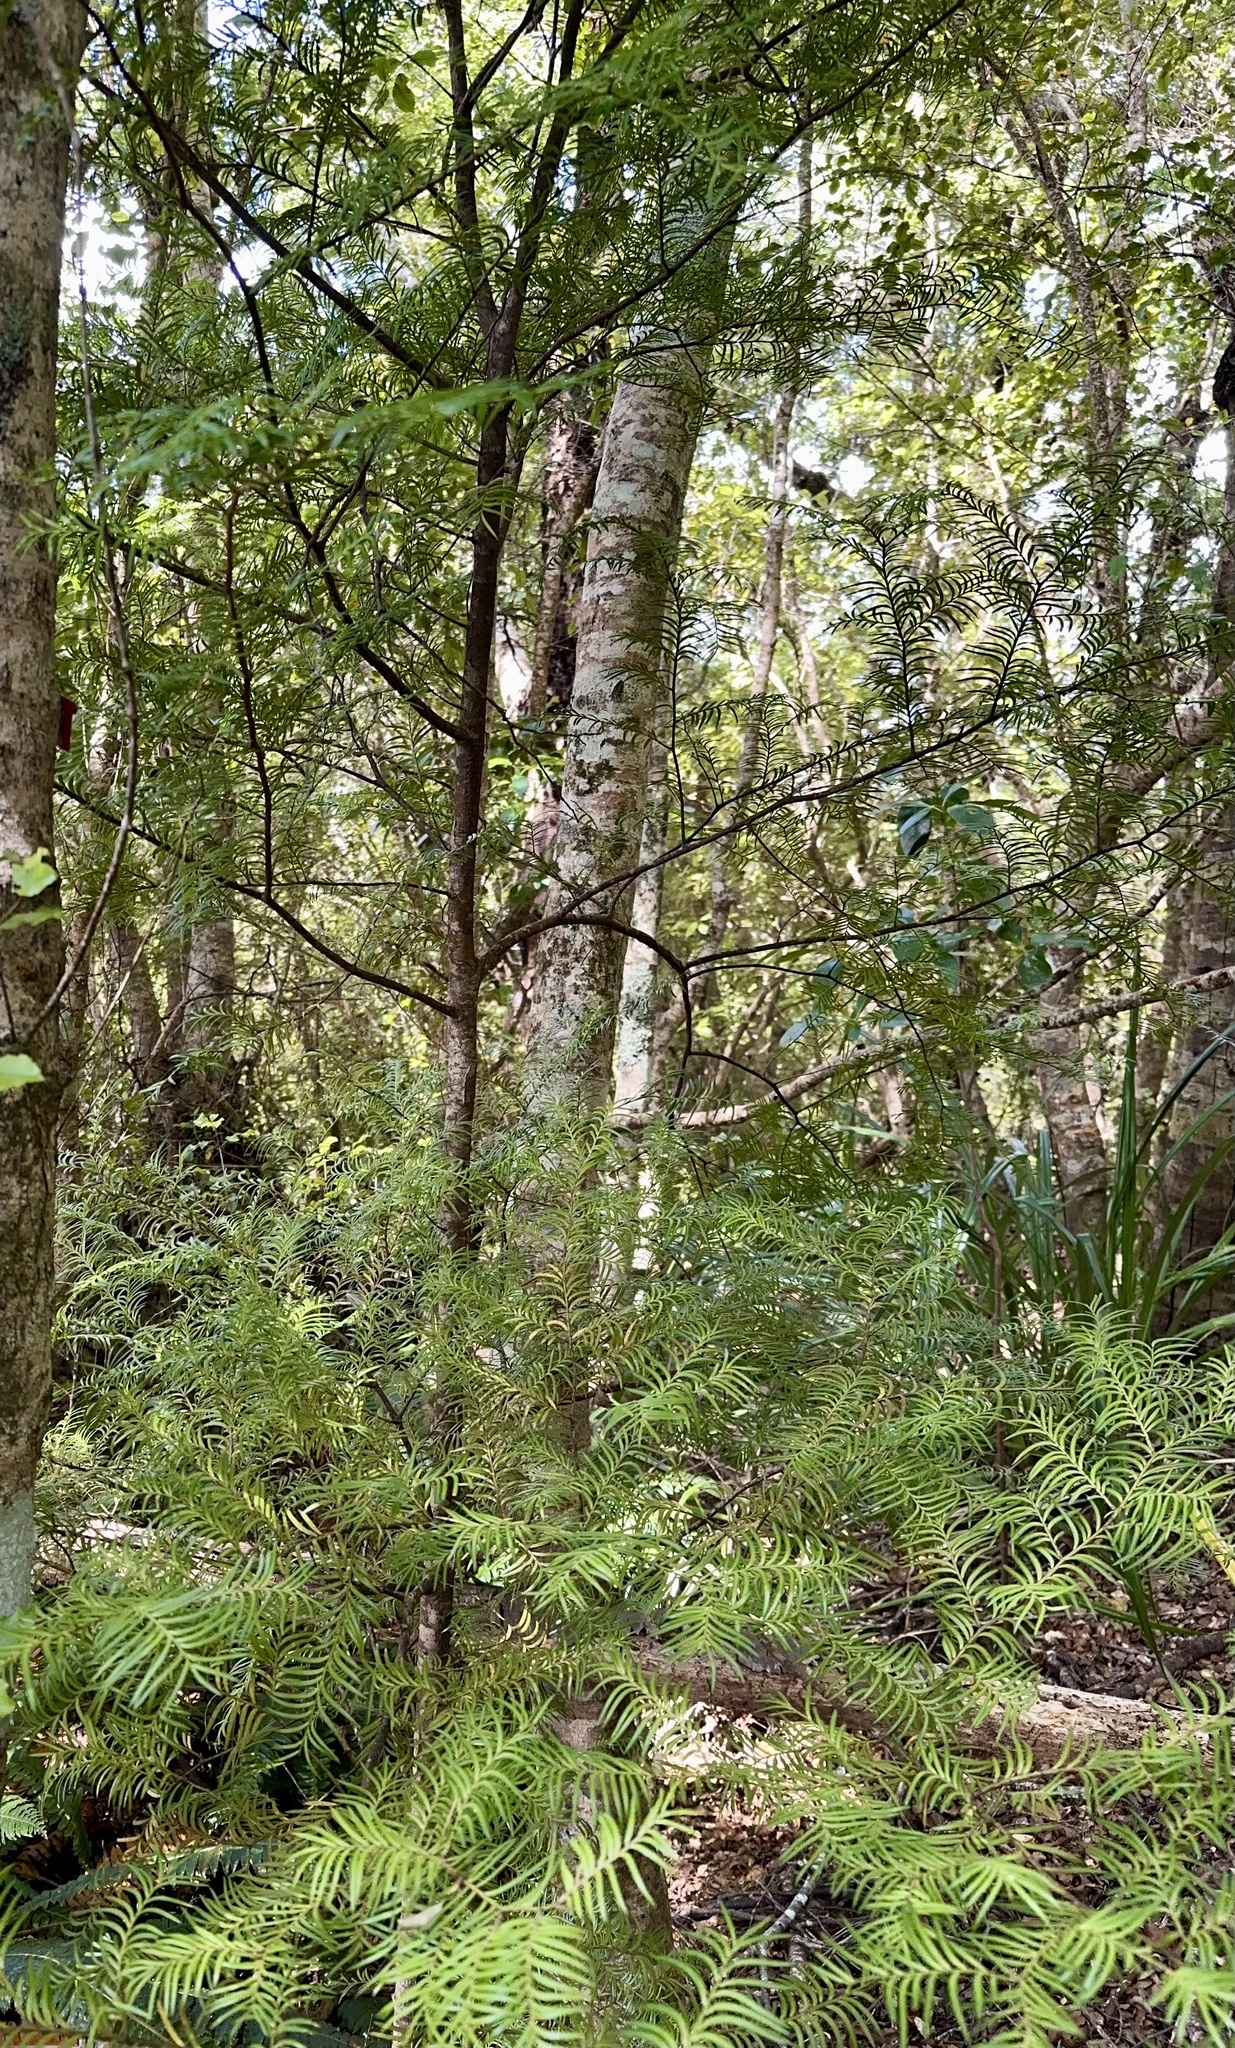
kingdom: Plantae
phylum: Tracheophyta
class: Pinopsida
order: Pinales
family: Podocarpaceae
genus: Prumnopitys
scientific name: Prumnopitys ferruginea
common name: Brown pine
